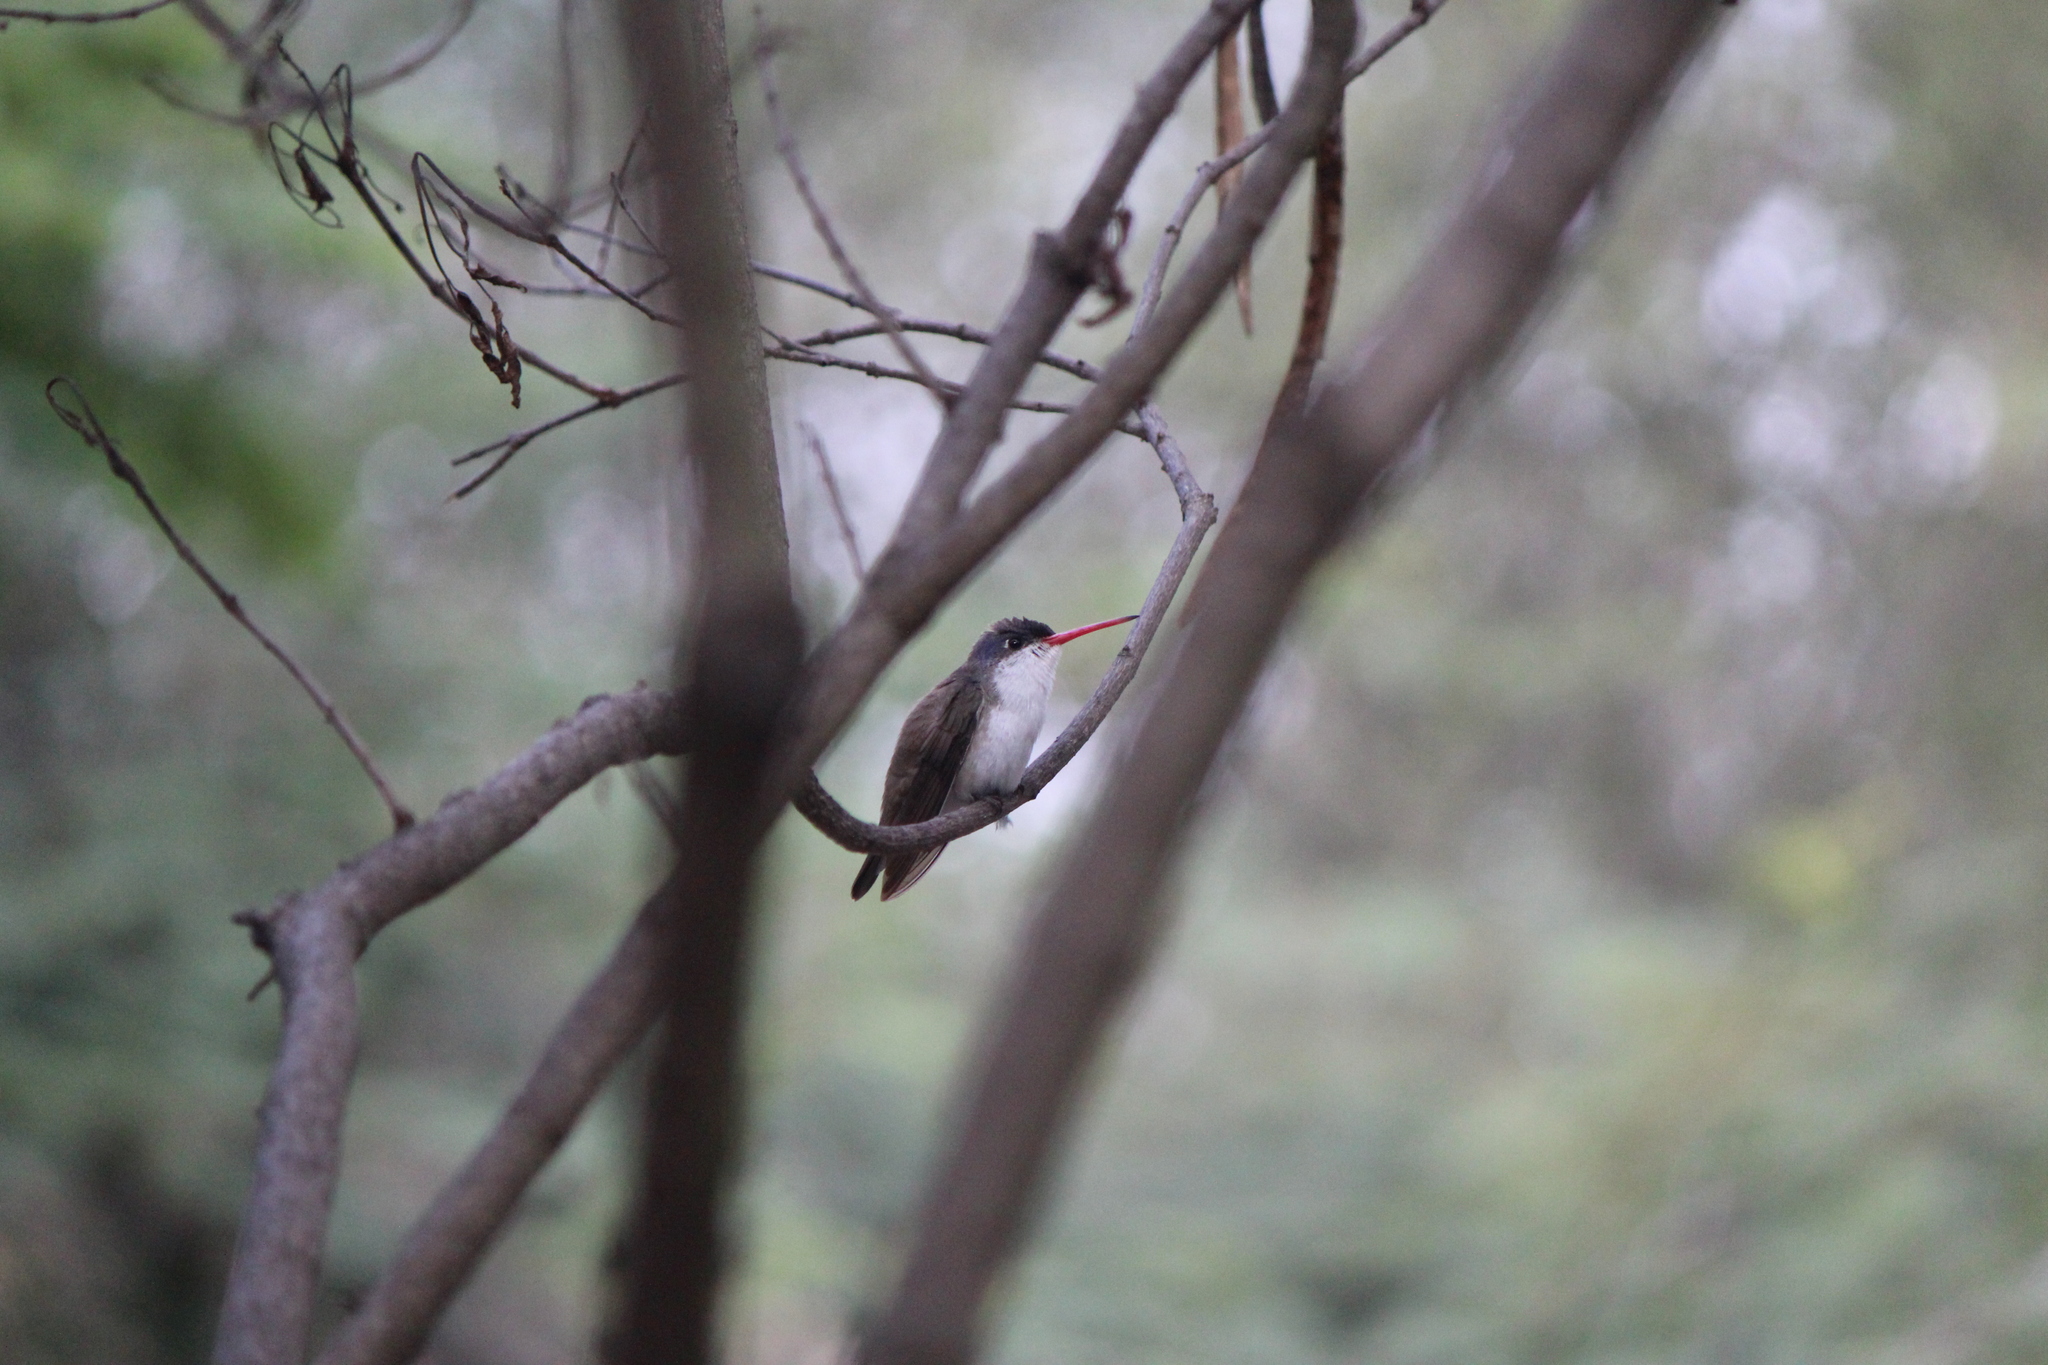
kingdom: Animalia
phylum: Chordata
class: Aves
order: Apodiformes
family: Trochilidae
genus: Leucolia
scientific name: Leucolia violiceps
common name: Violet-crowned hummingbird
